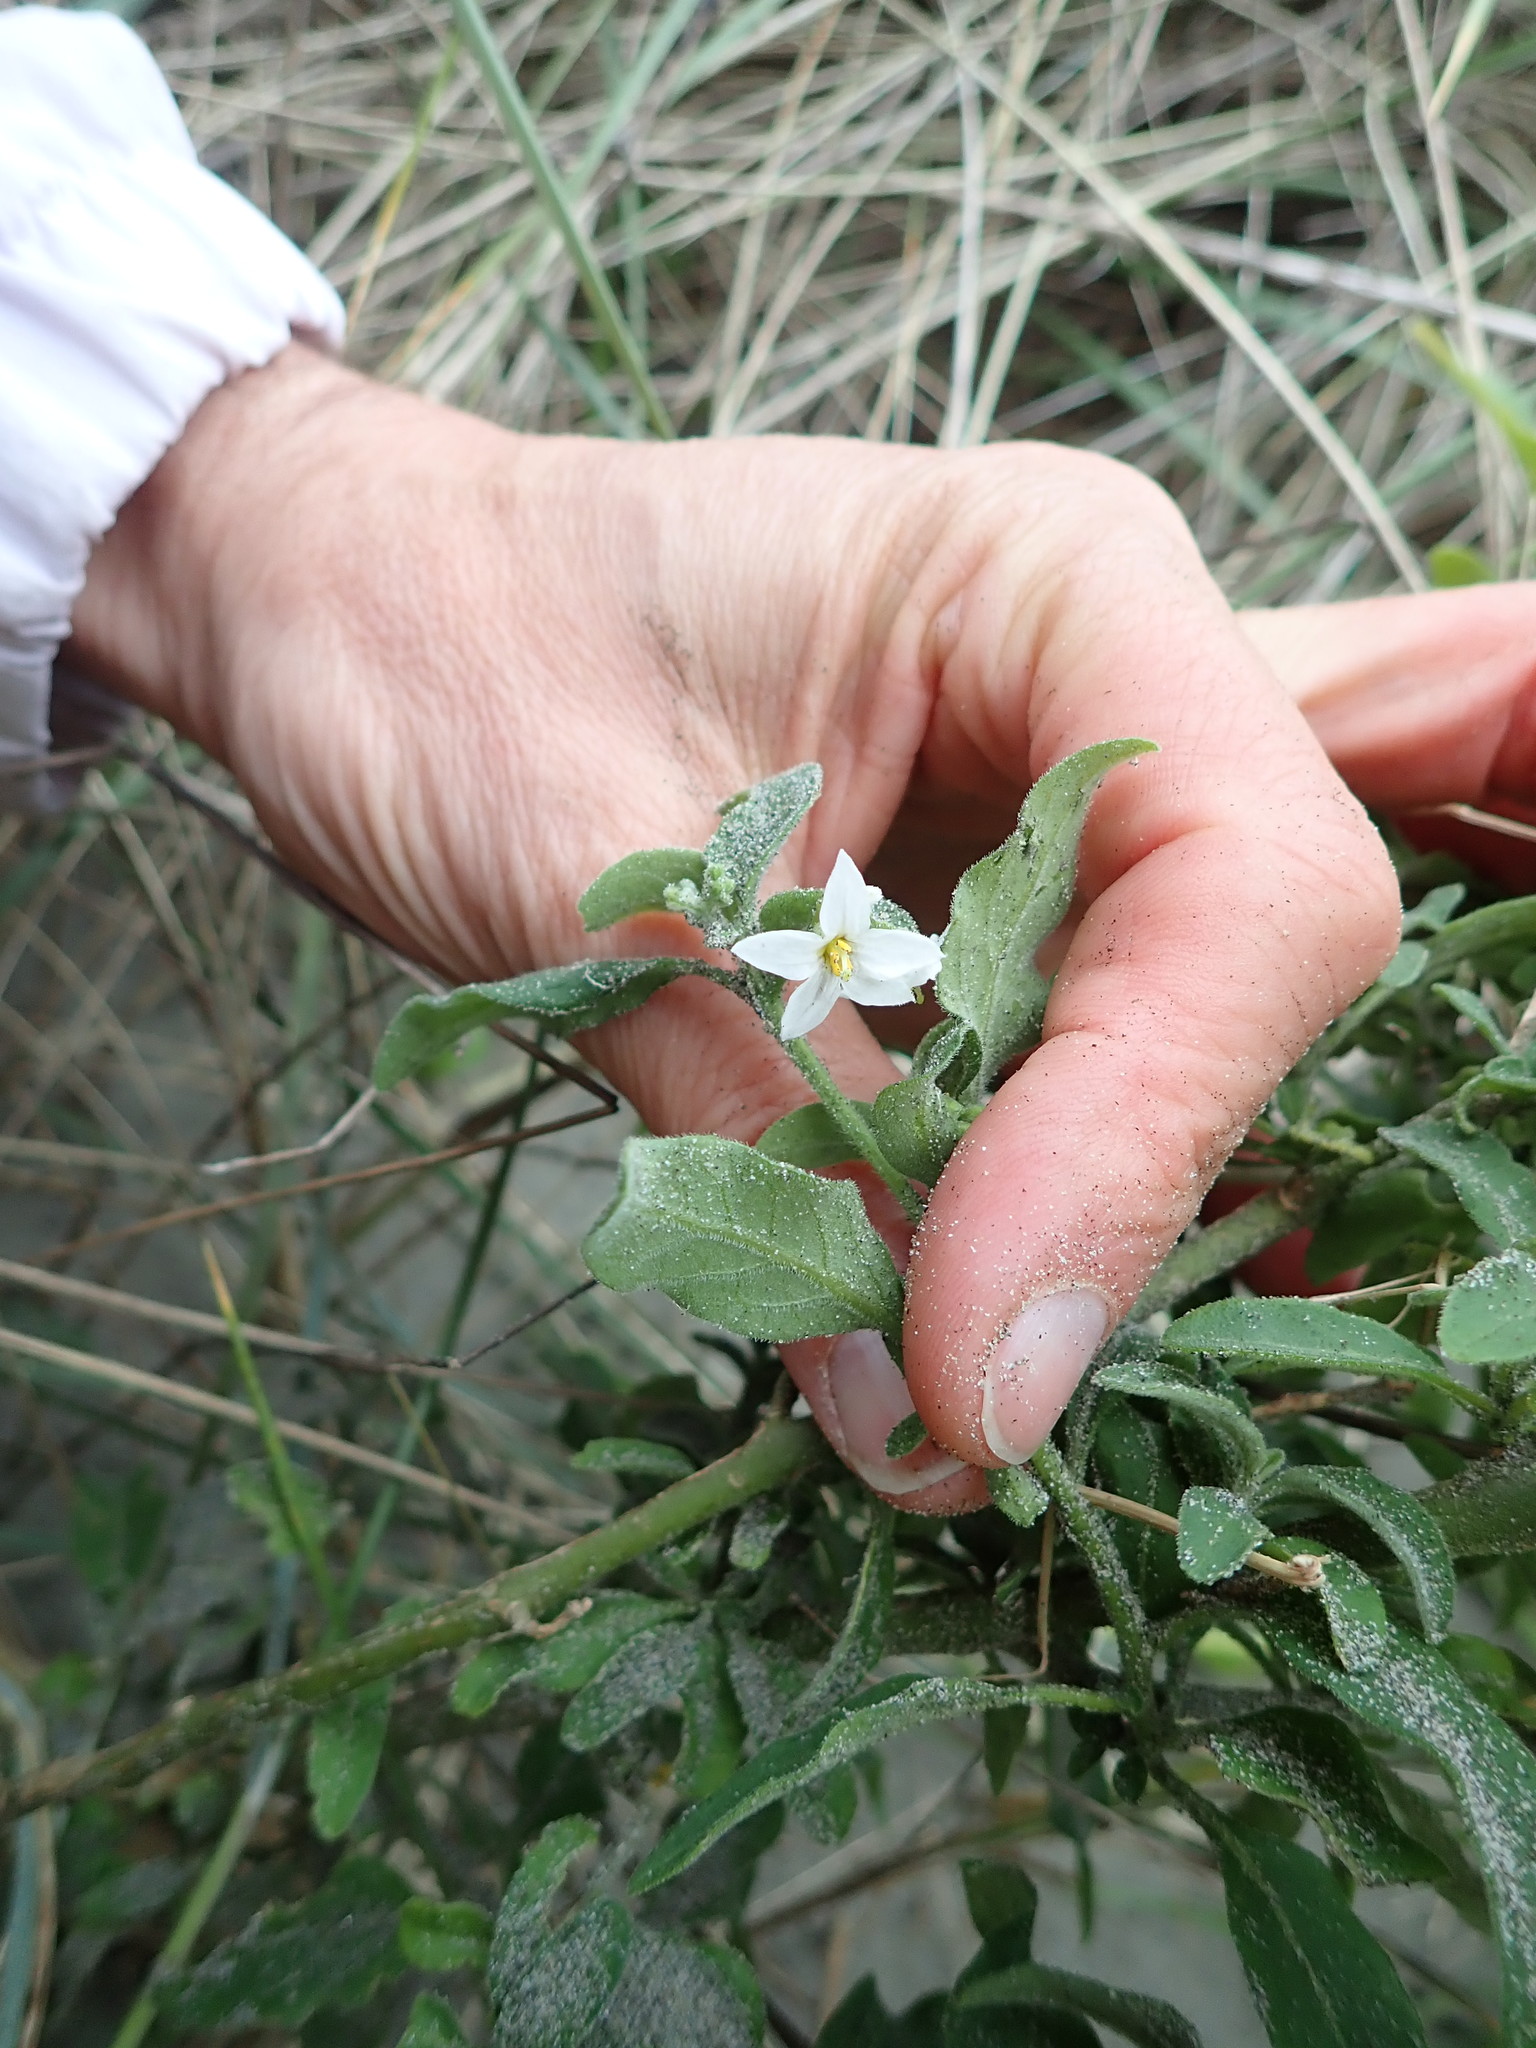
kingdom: Plantae
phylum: Tracheophyta
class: Magnoliopsida
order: Solanales
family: Solanaceae
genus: Solanum
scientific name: Solanum chenopodioides
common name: Tall nightshade
